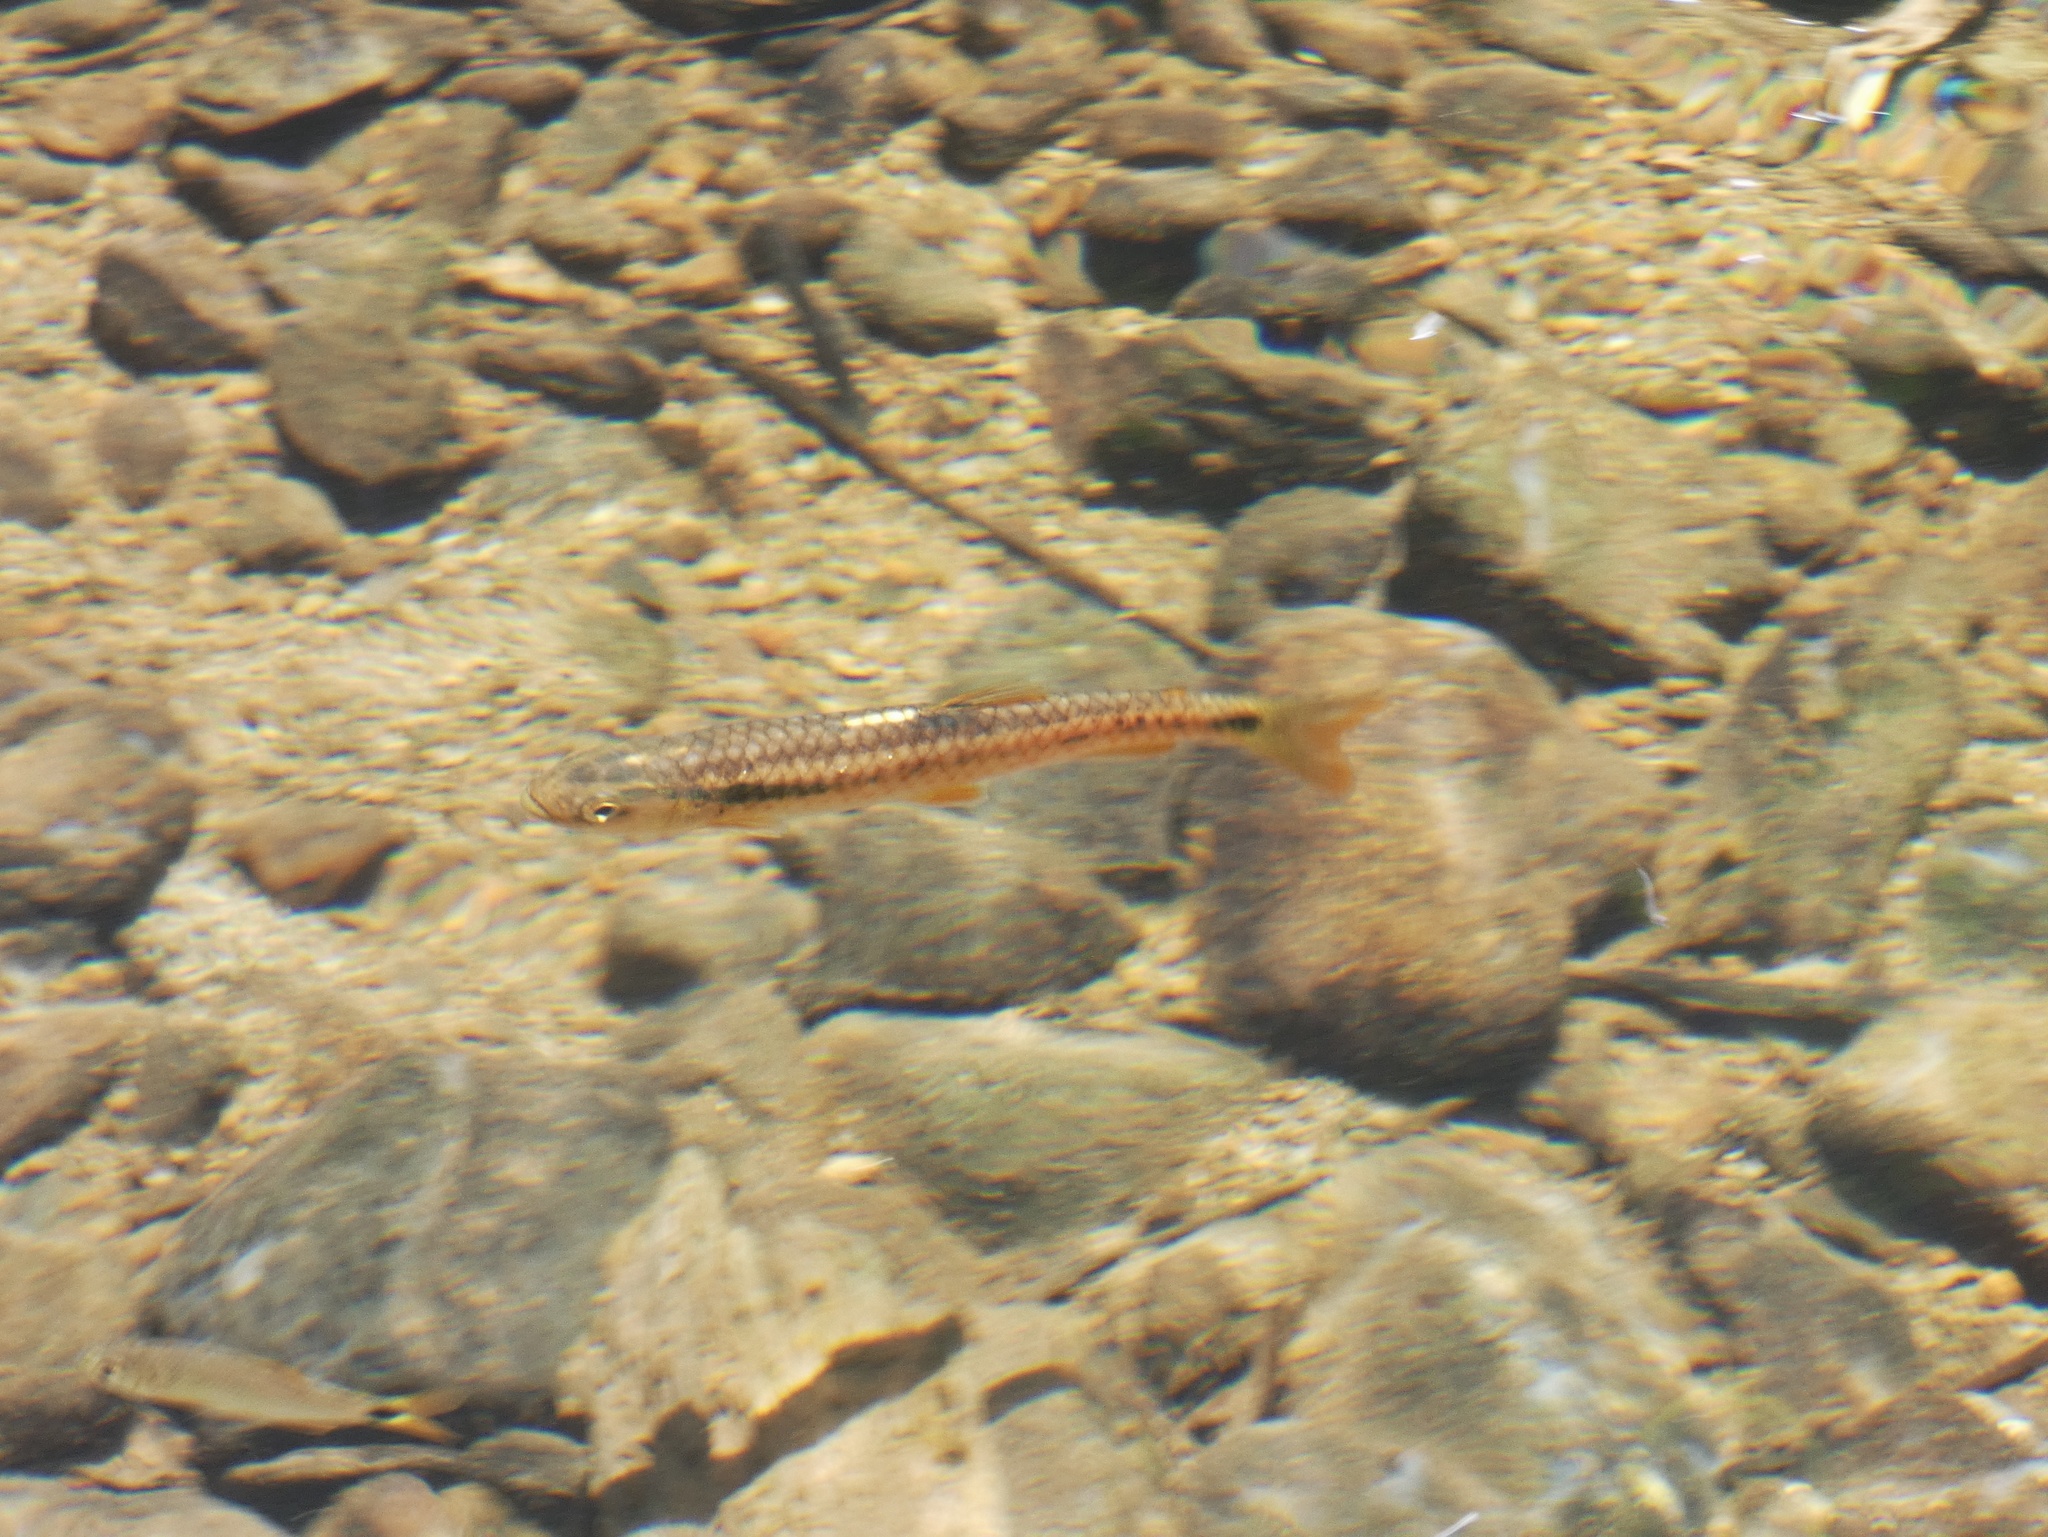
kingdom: Animalia
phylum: Chordata
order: Characiformes
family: Lebiasinidae
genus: Piabucina
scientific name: Piabucina panamensis
